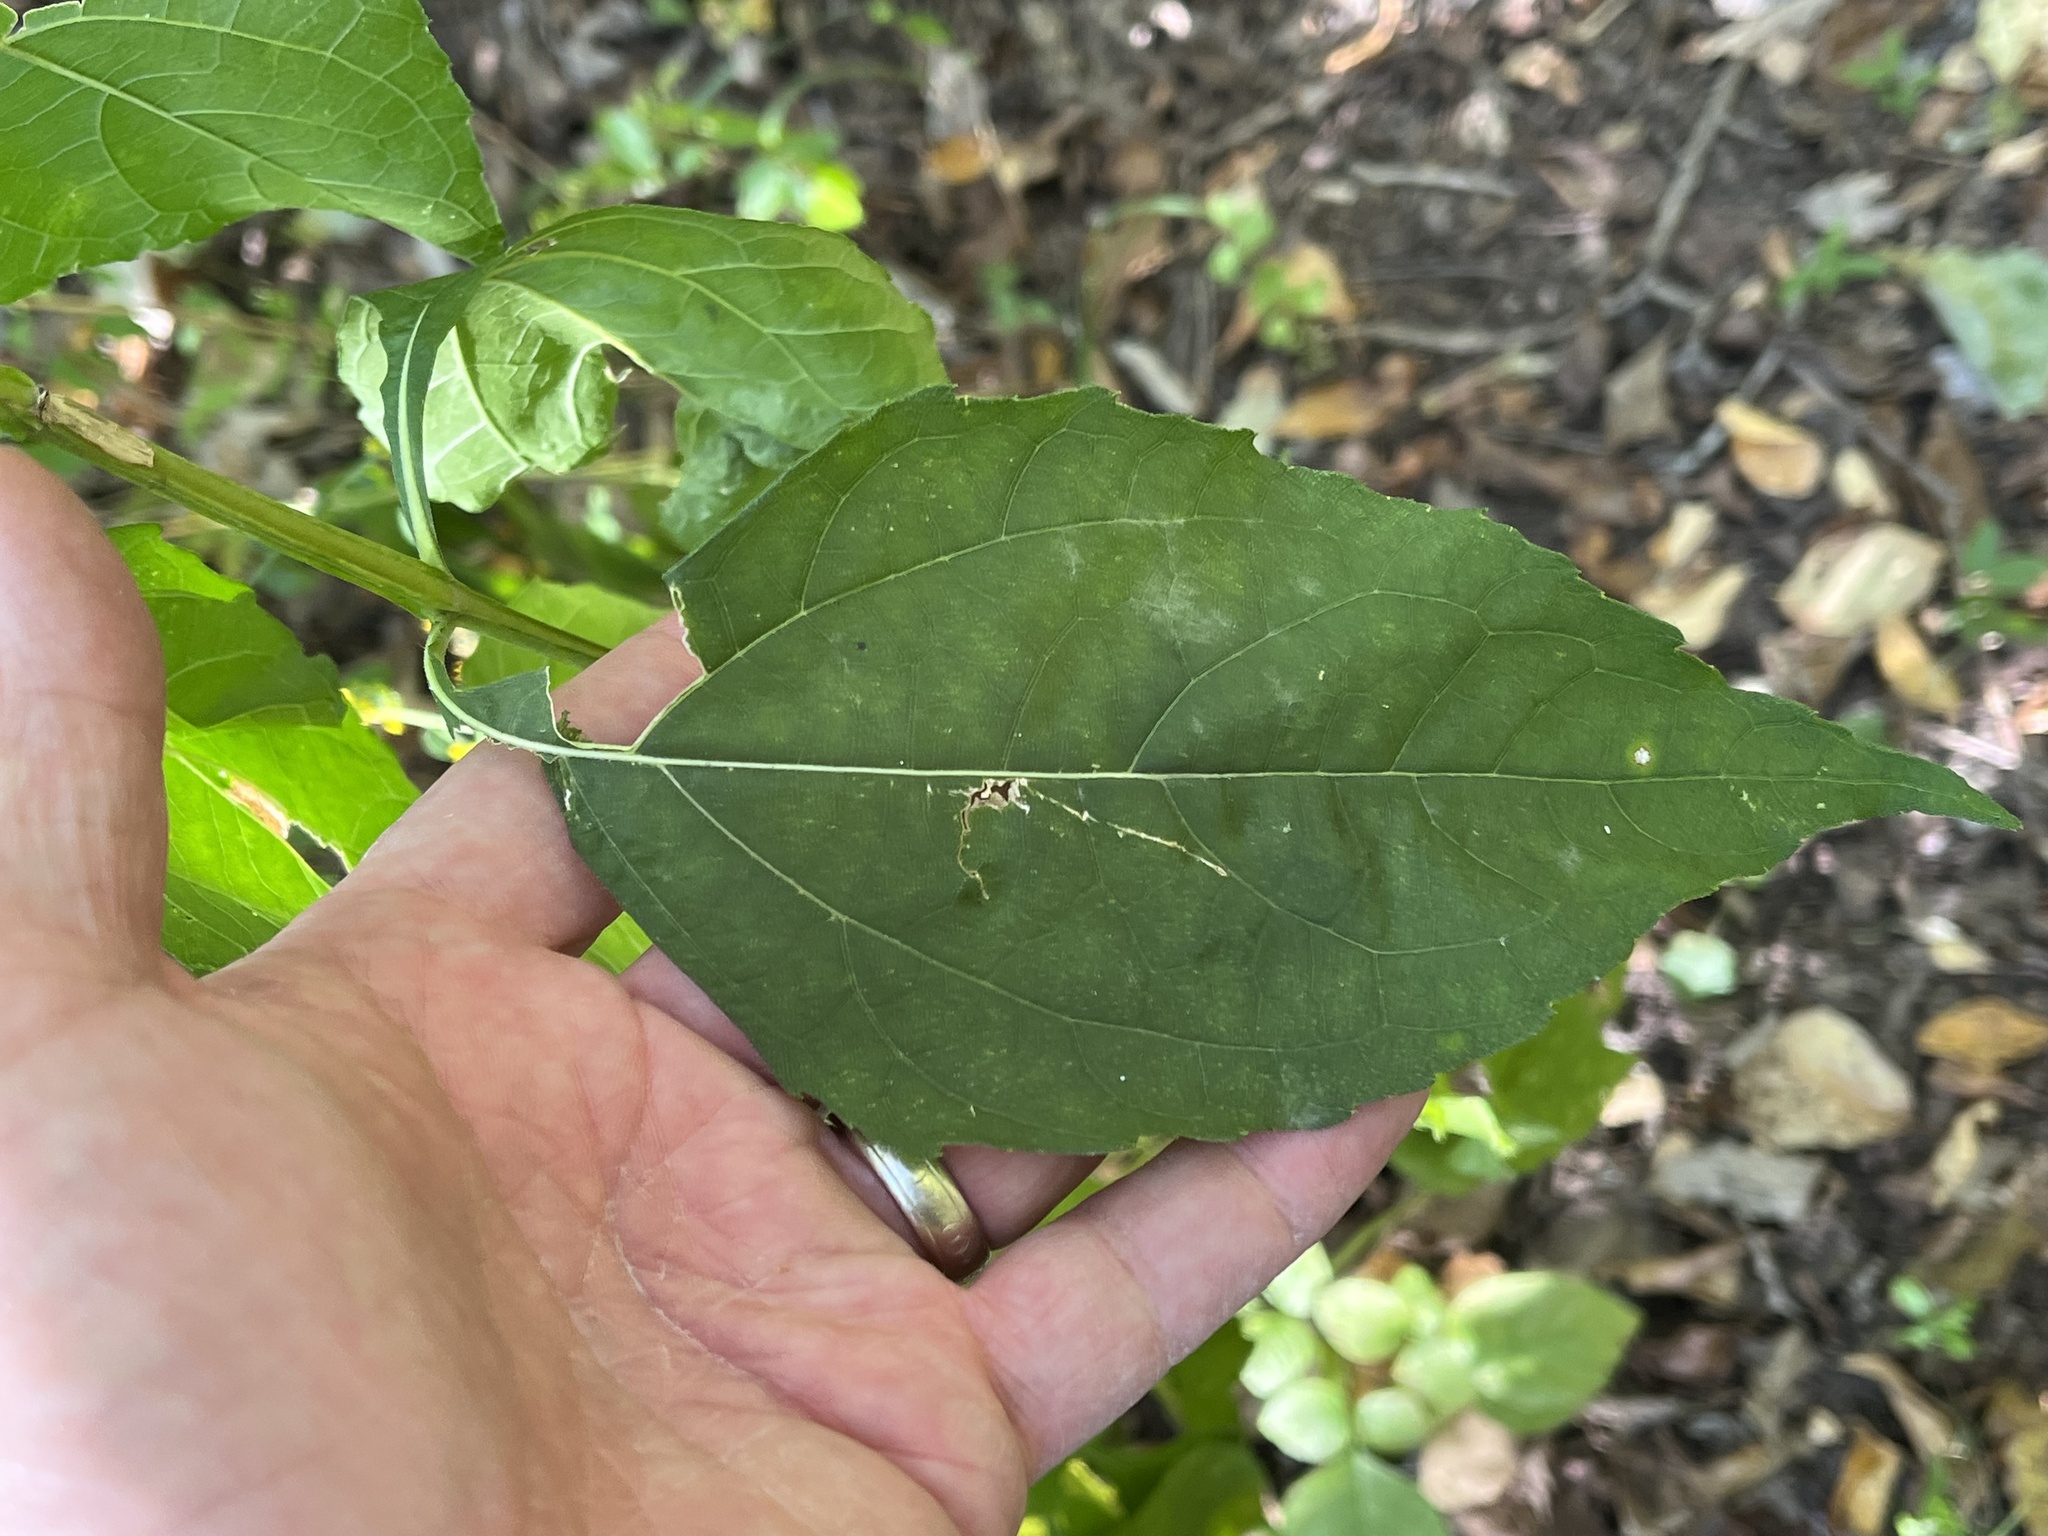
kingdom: Plantae
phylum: Tracheophyta
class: Magnoliopsida
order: Asterales
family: Asteraceae
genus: Verbesina
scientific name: Verbesina occidentalis
